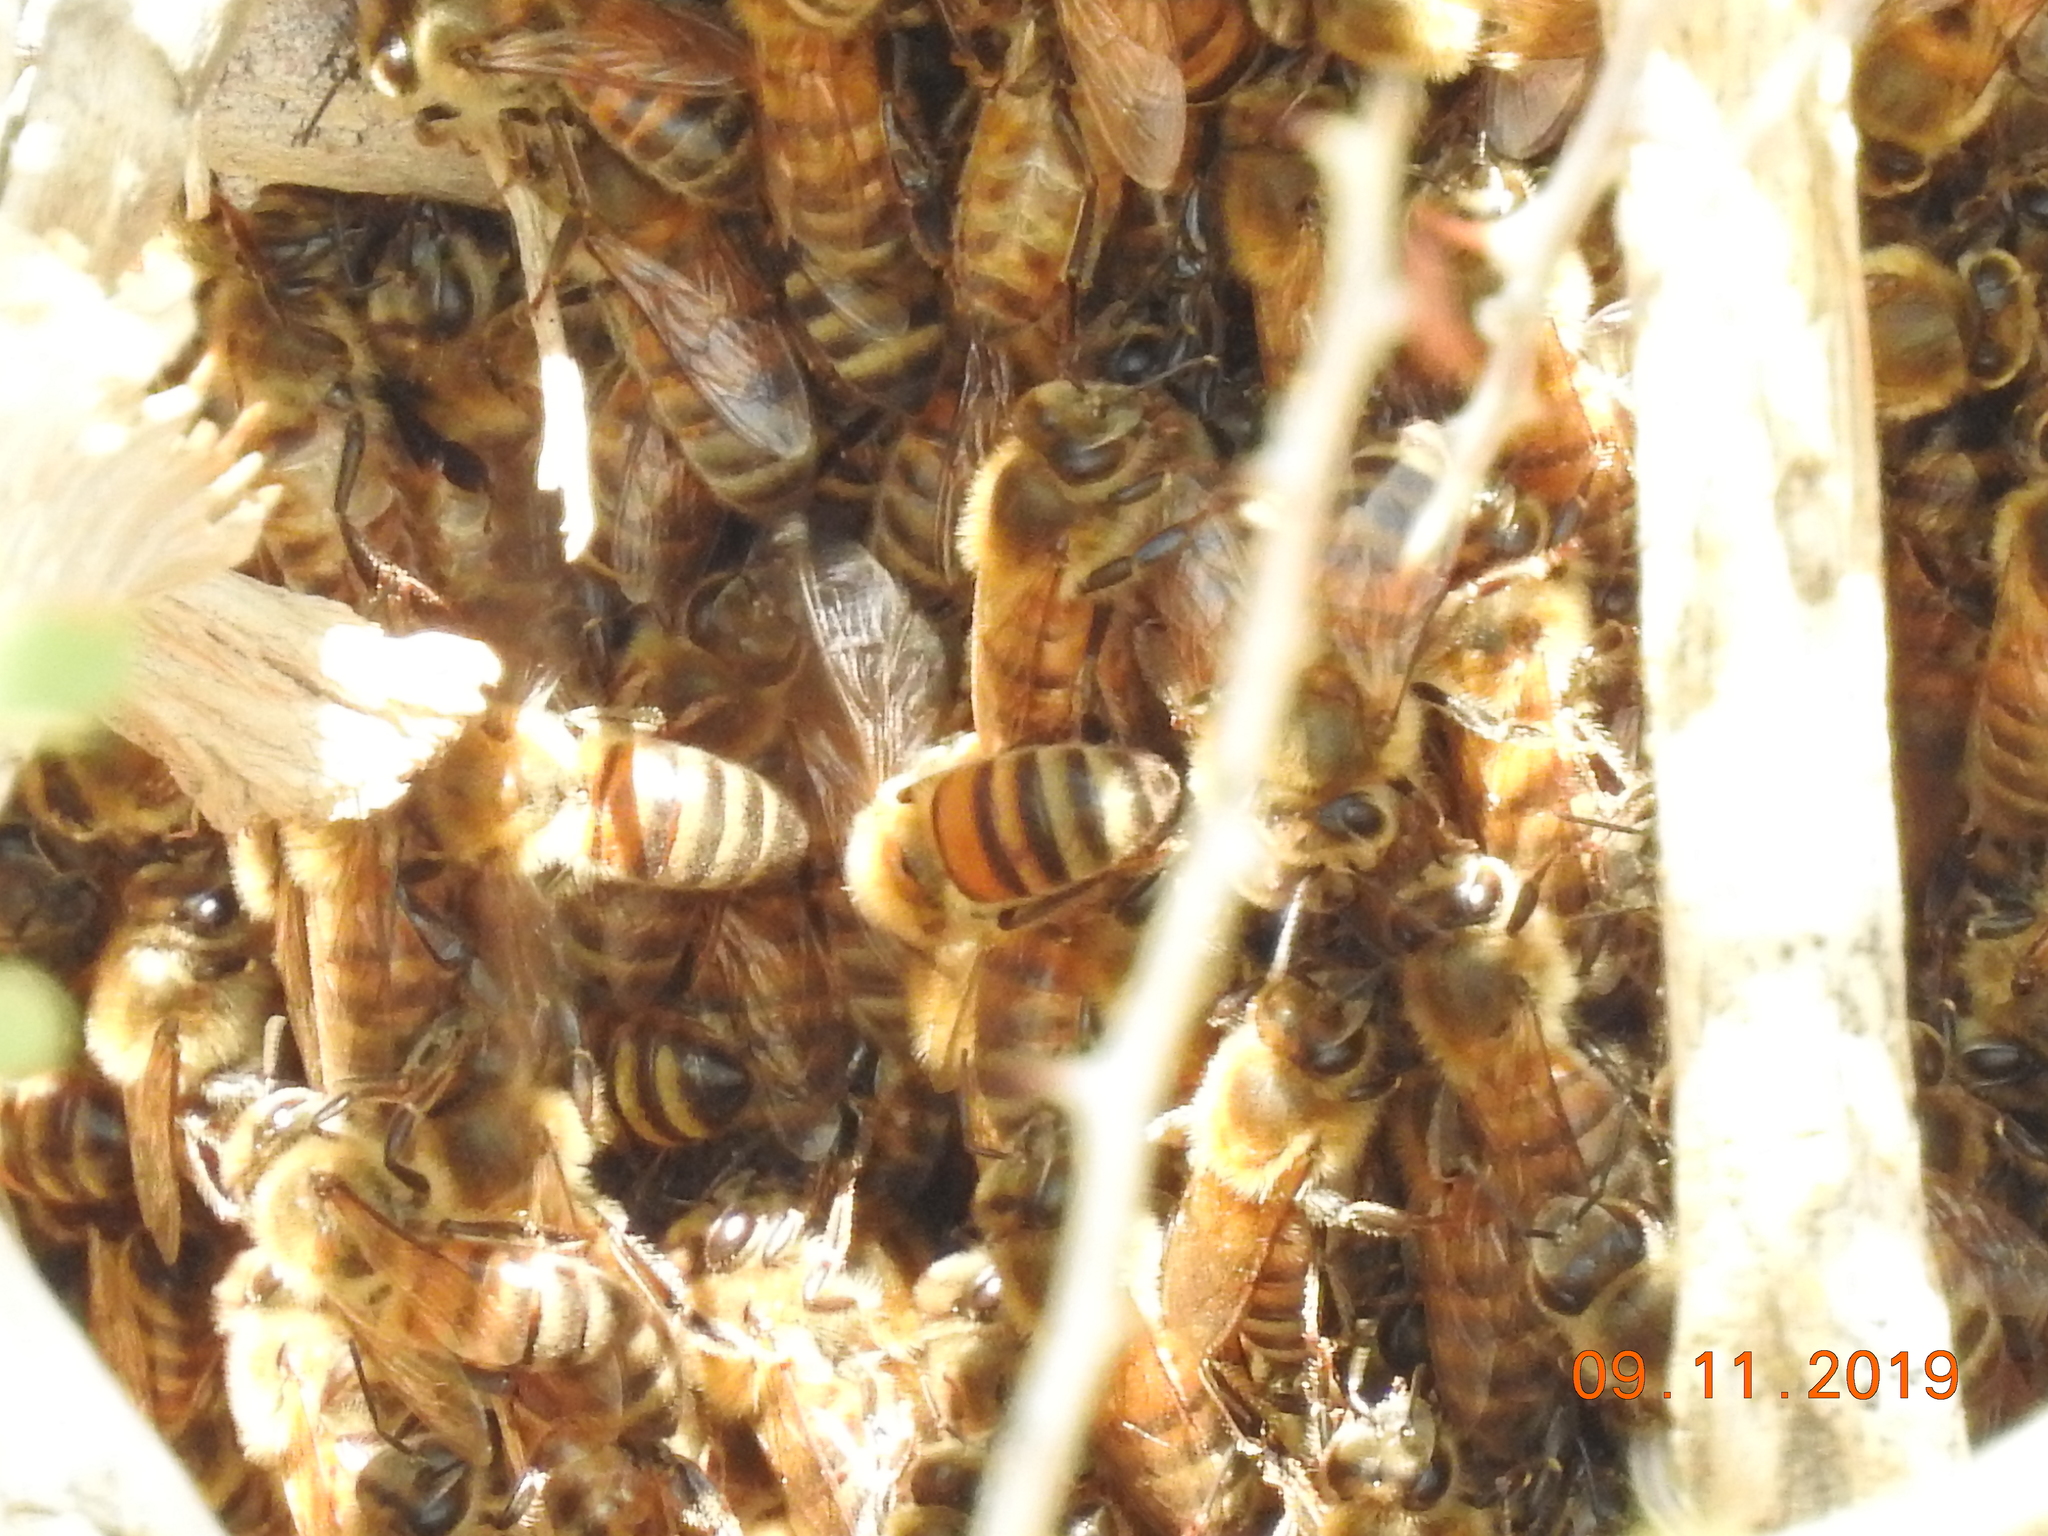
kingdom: Animalia
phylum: Arthropoda
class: Insecta
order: Hymenoptera
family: Apidae
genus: Apis
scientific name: Apis mellifera
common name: Honey bee
